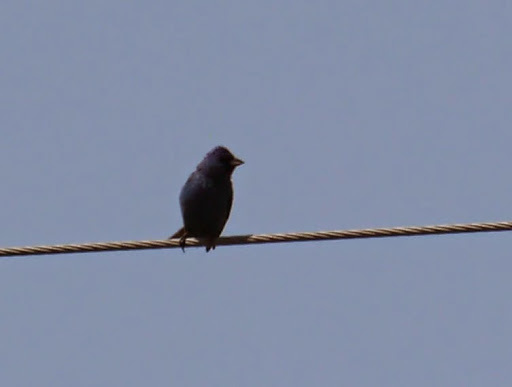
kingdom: Animalia
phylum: Chordata
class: Aves
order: Passeriformes
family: Cardinalidae
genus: Passerina
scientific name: Passerina cyanea
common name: Indigo bunting
